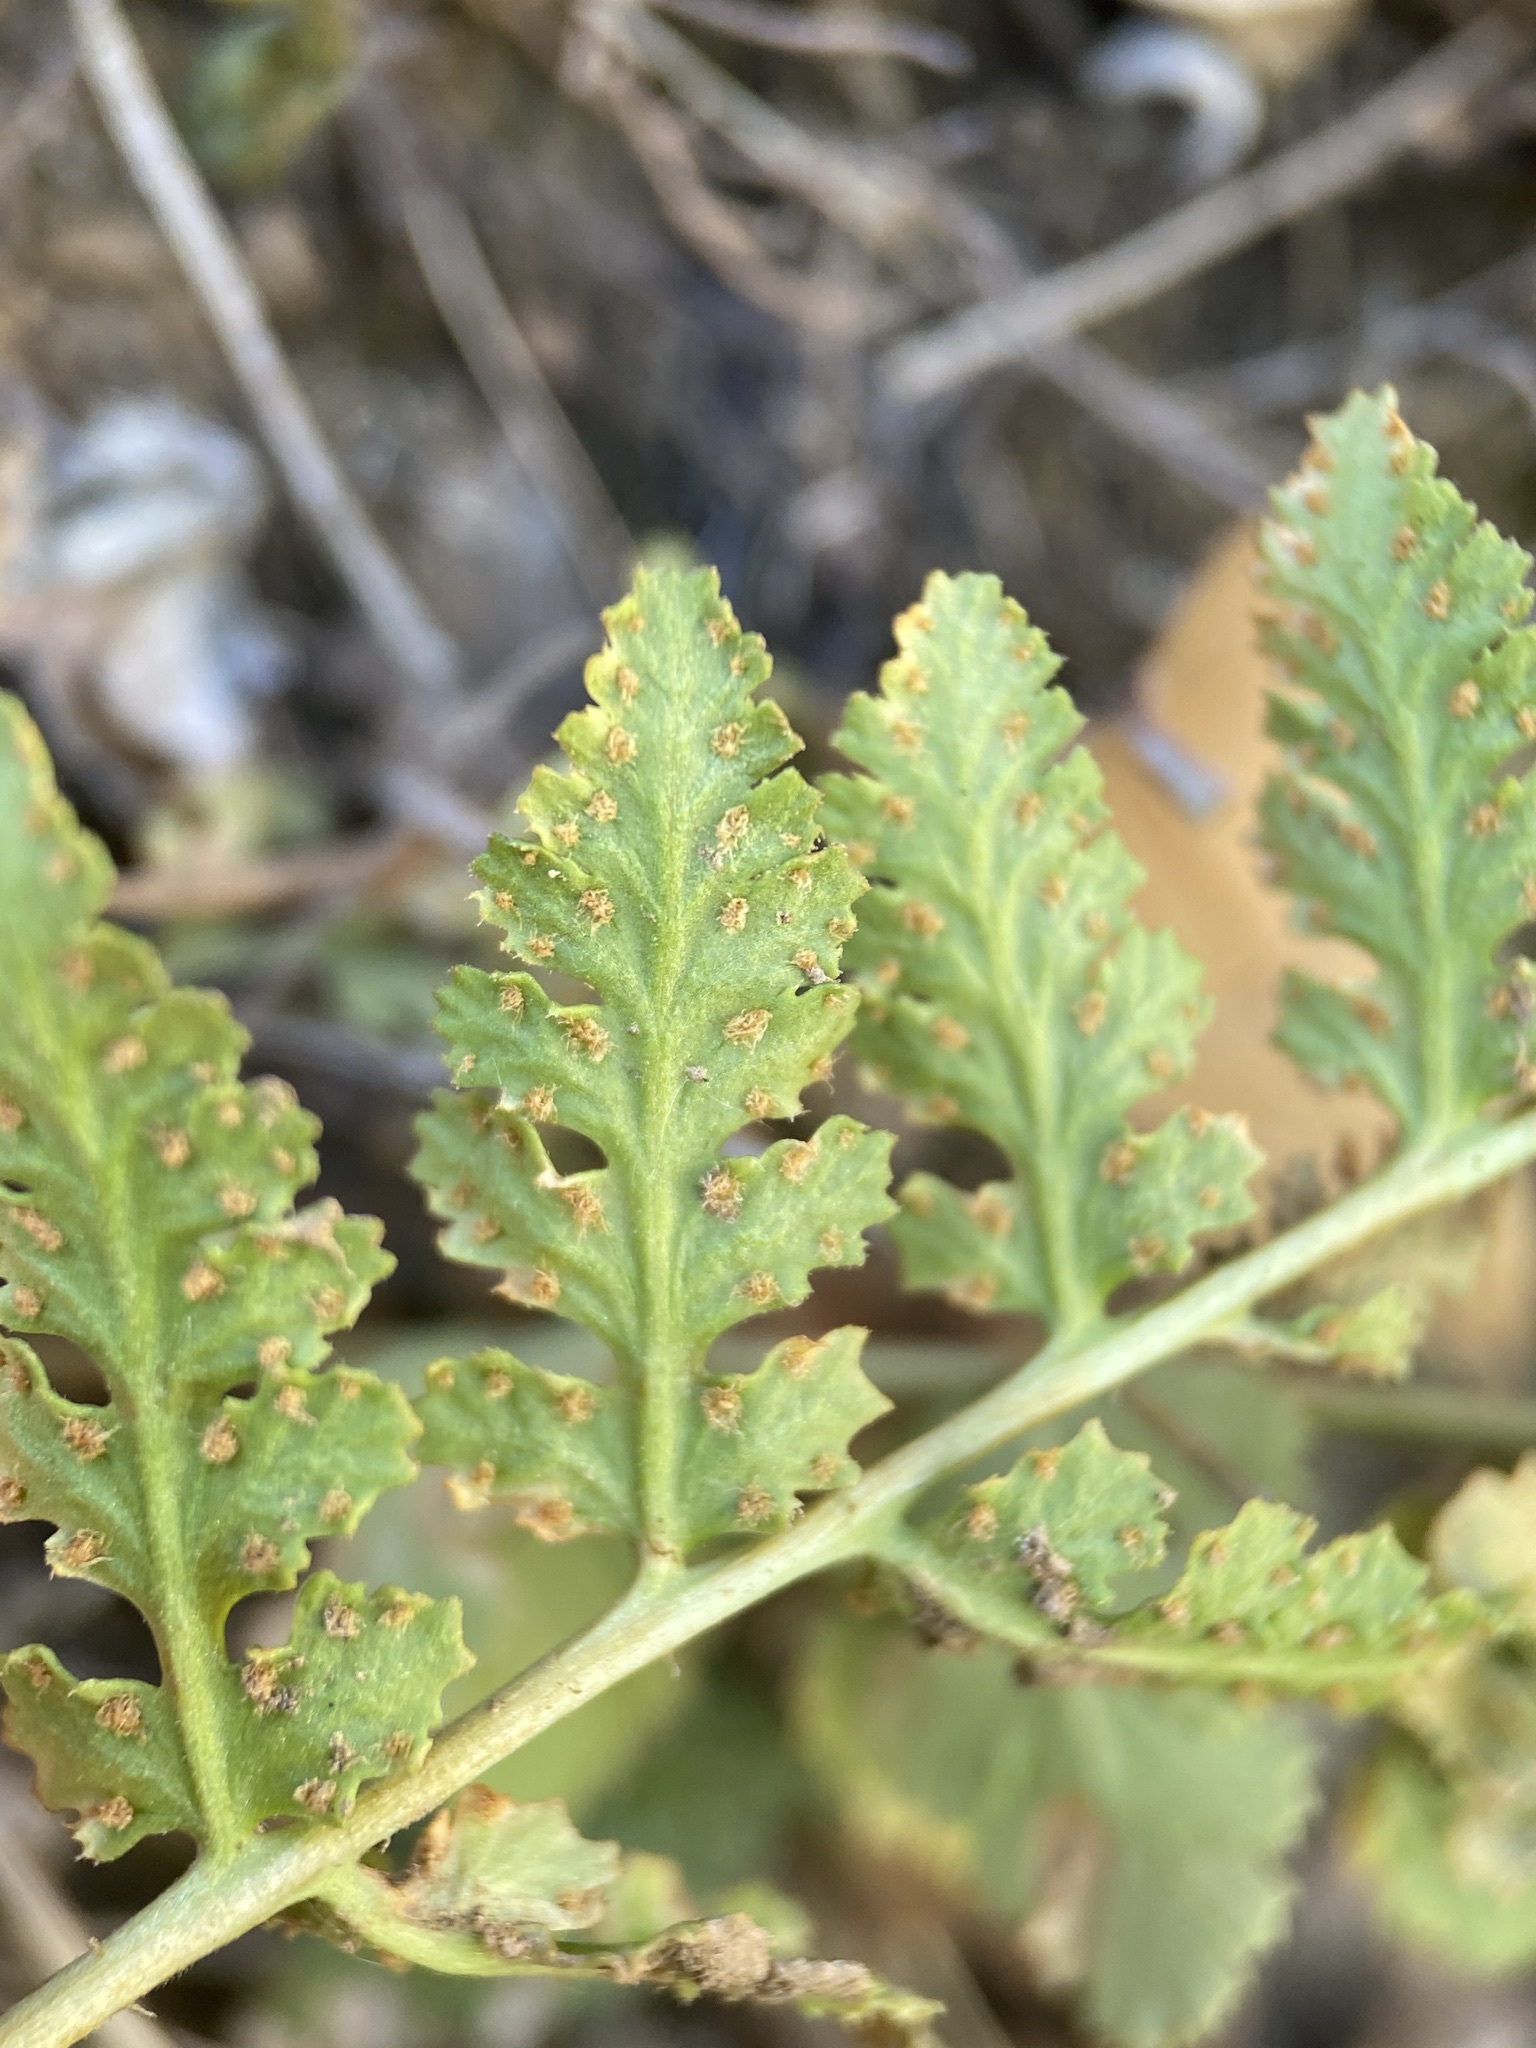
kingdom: Plantae
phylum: Tracheophyta
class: Polypodiopsida
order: Polypodiales
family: Woodsiaceae
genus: Physematium
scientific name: Physematium neomexicanum
